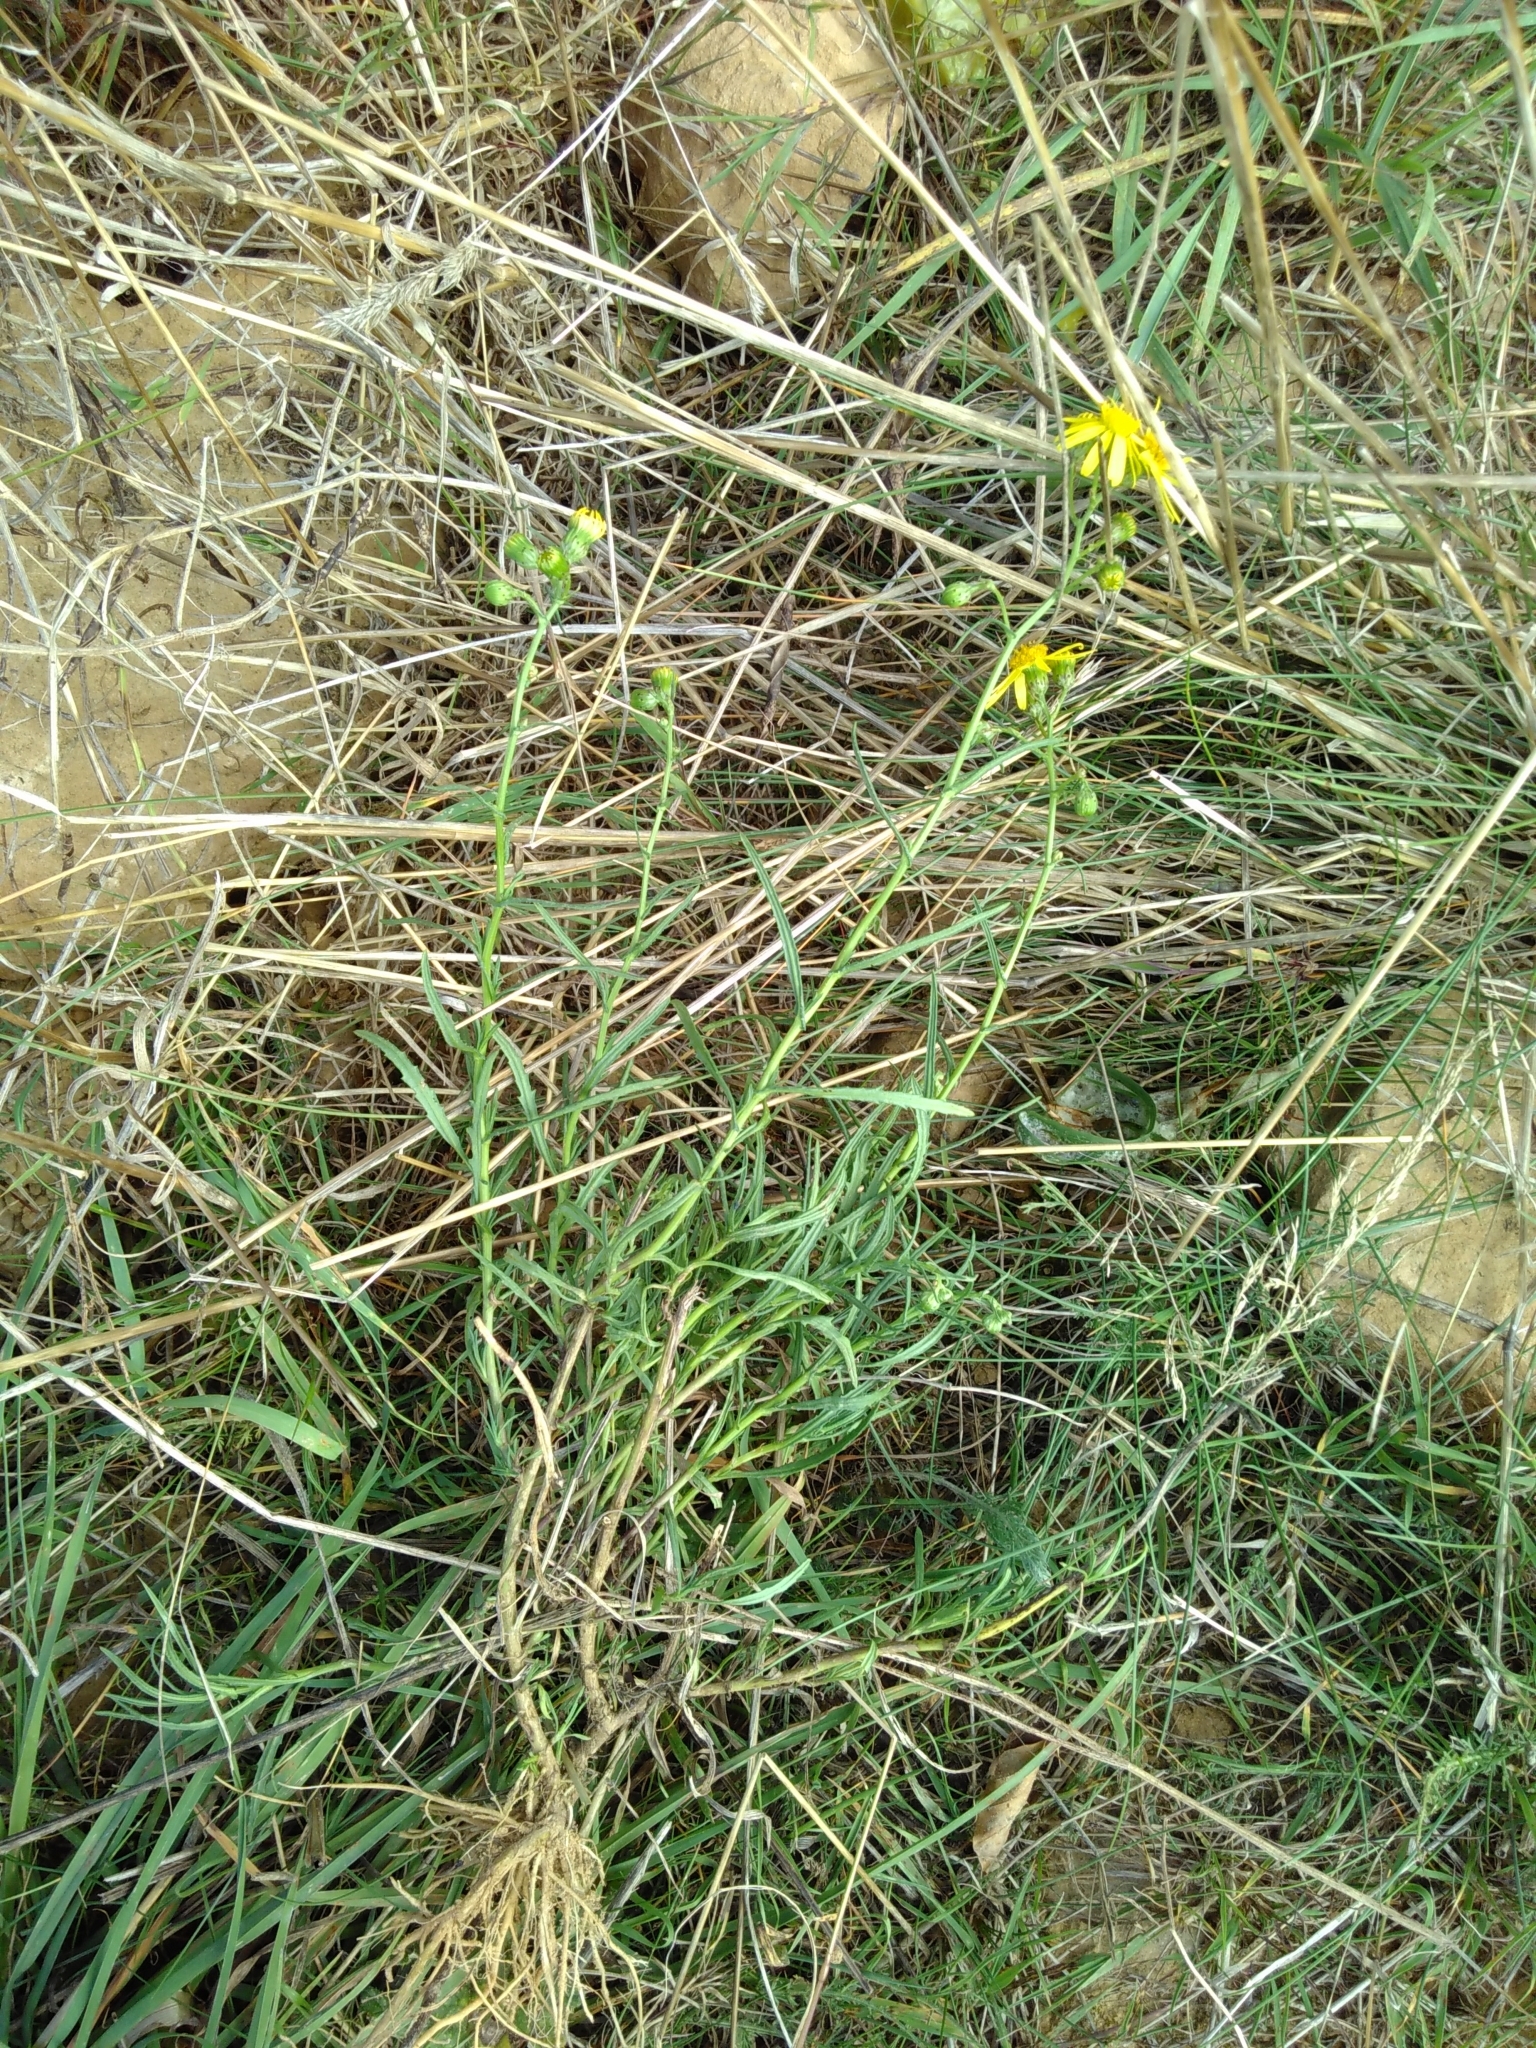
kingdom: Plantae
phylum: Tracheophyta
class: Magnoliopsida
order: Asterales
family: Asteraceae
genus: Senecio
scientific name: Senecio inaequidens
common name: Narrow-leaved ragwort
